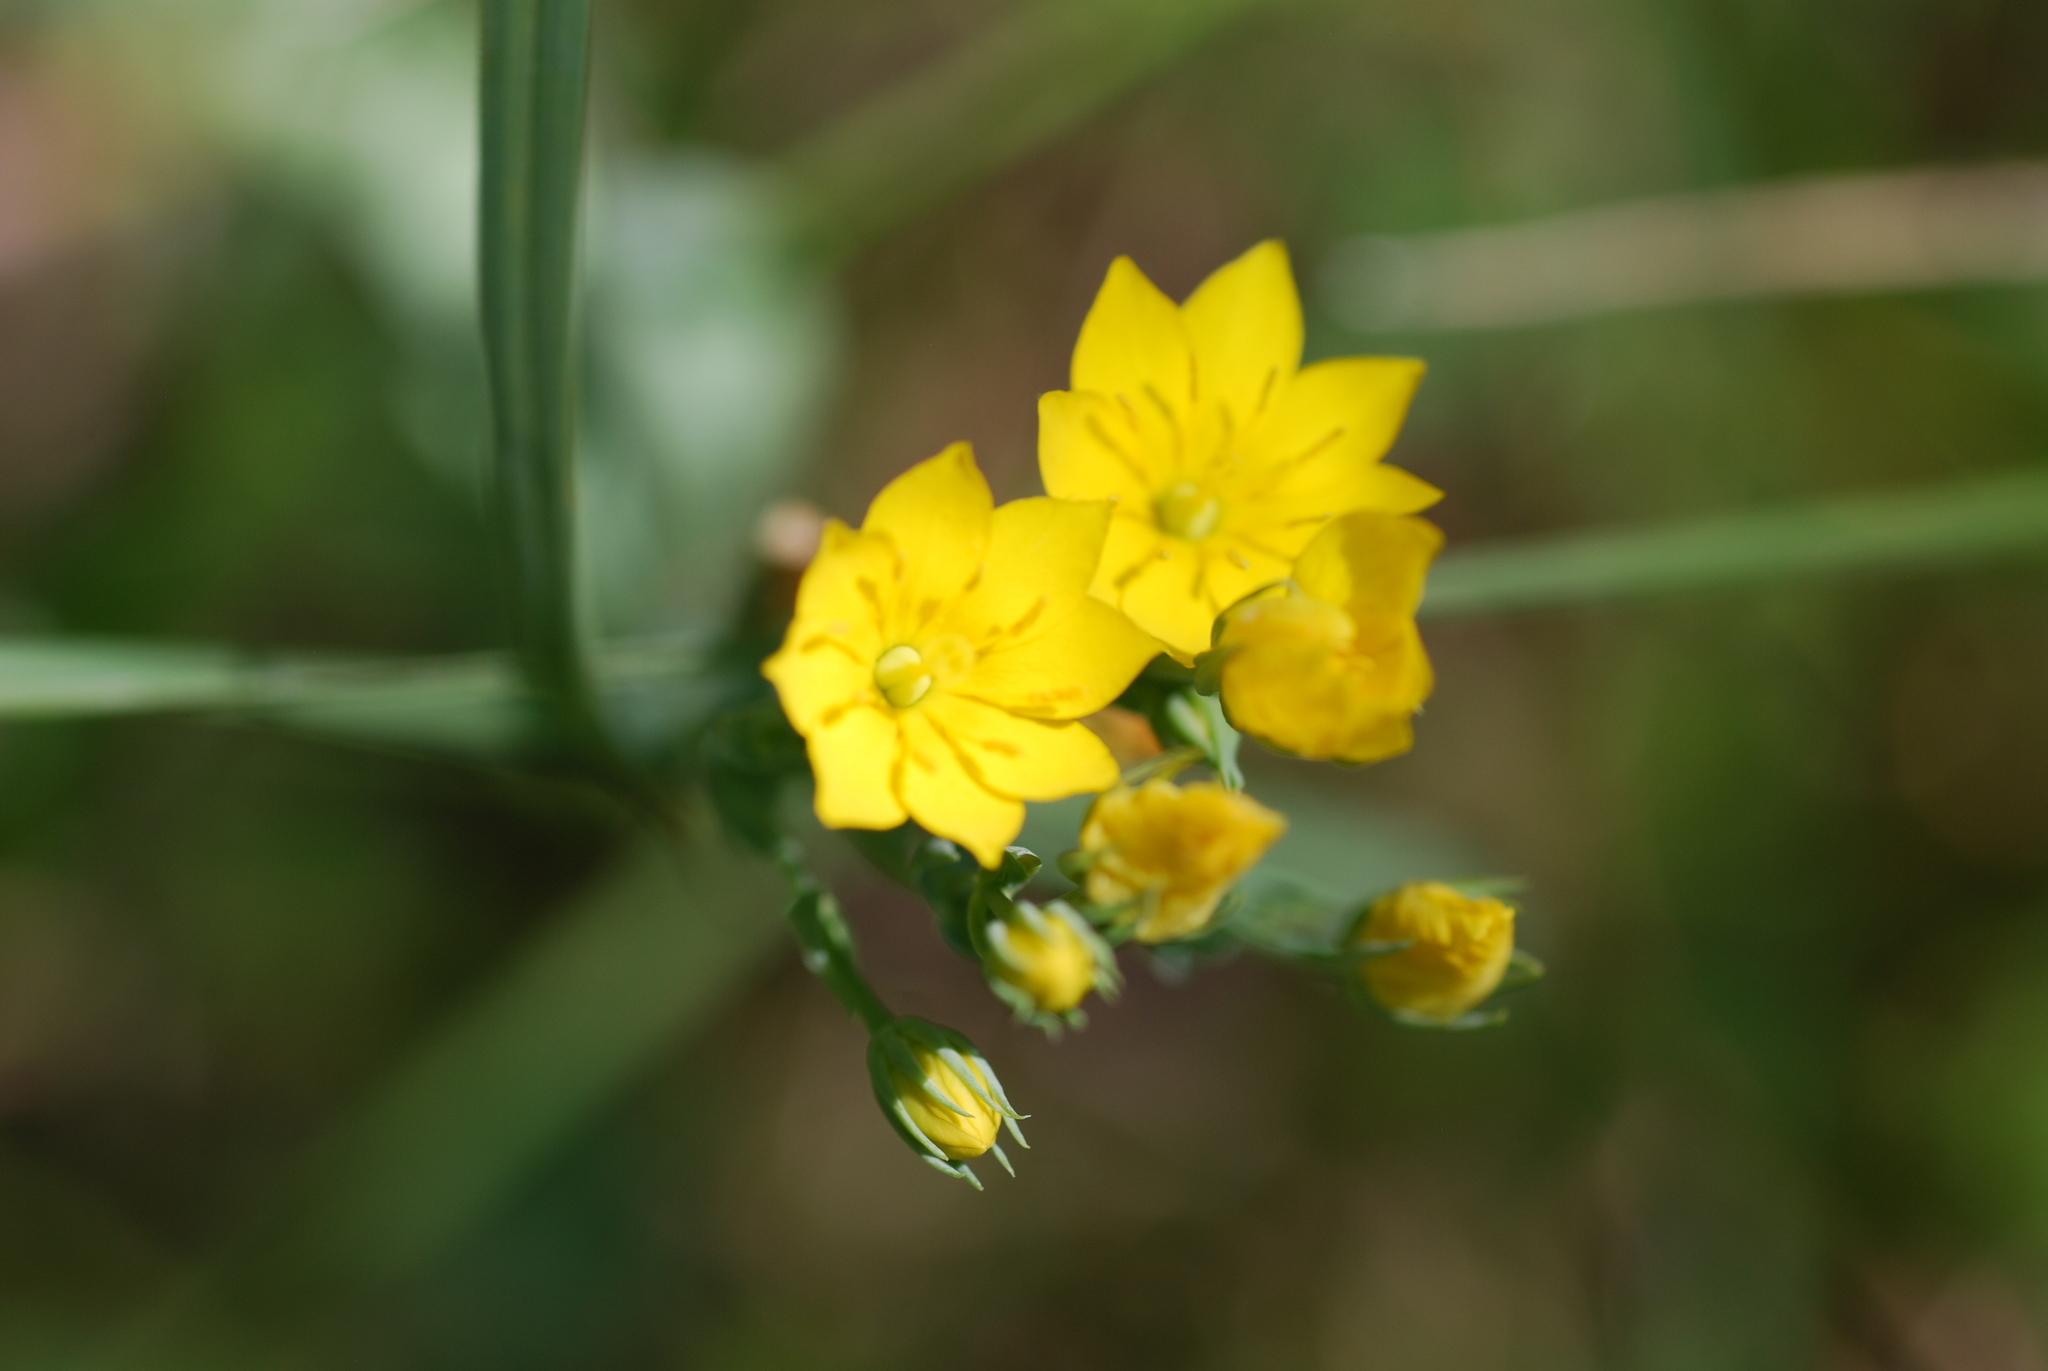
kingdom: Plantae
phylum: Tracheophyta
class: Magnoliopsida
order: Gentianales
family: Gentianaceae
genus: Blackstonia
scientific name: Blackstonia perfoliata
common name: Yellow-wort
